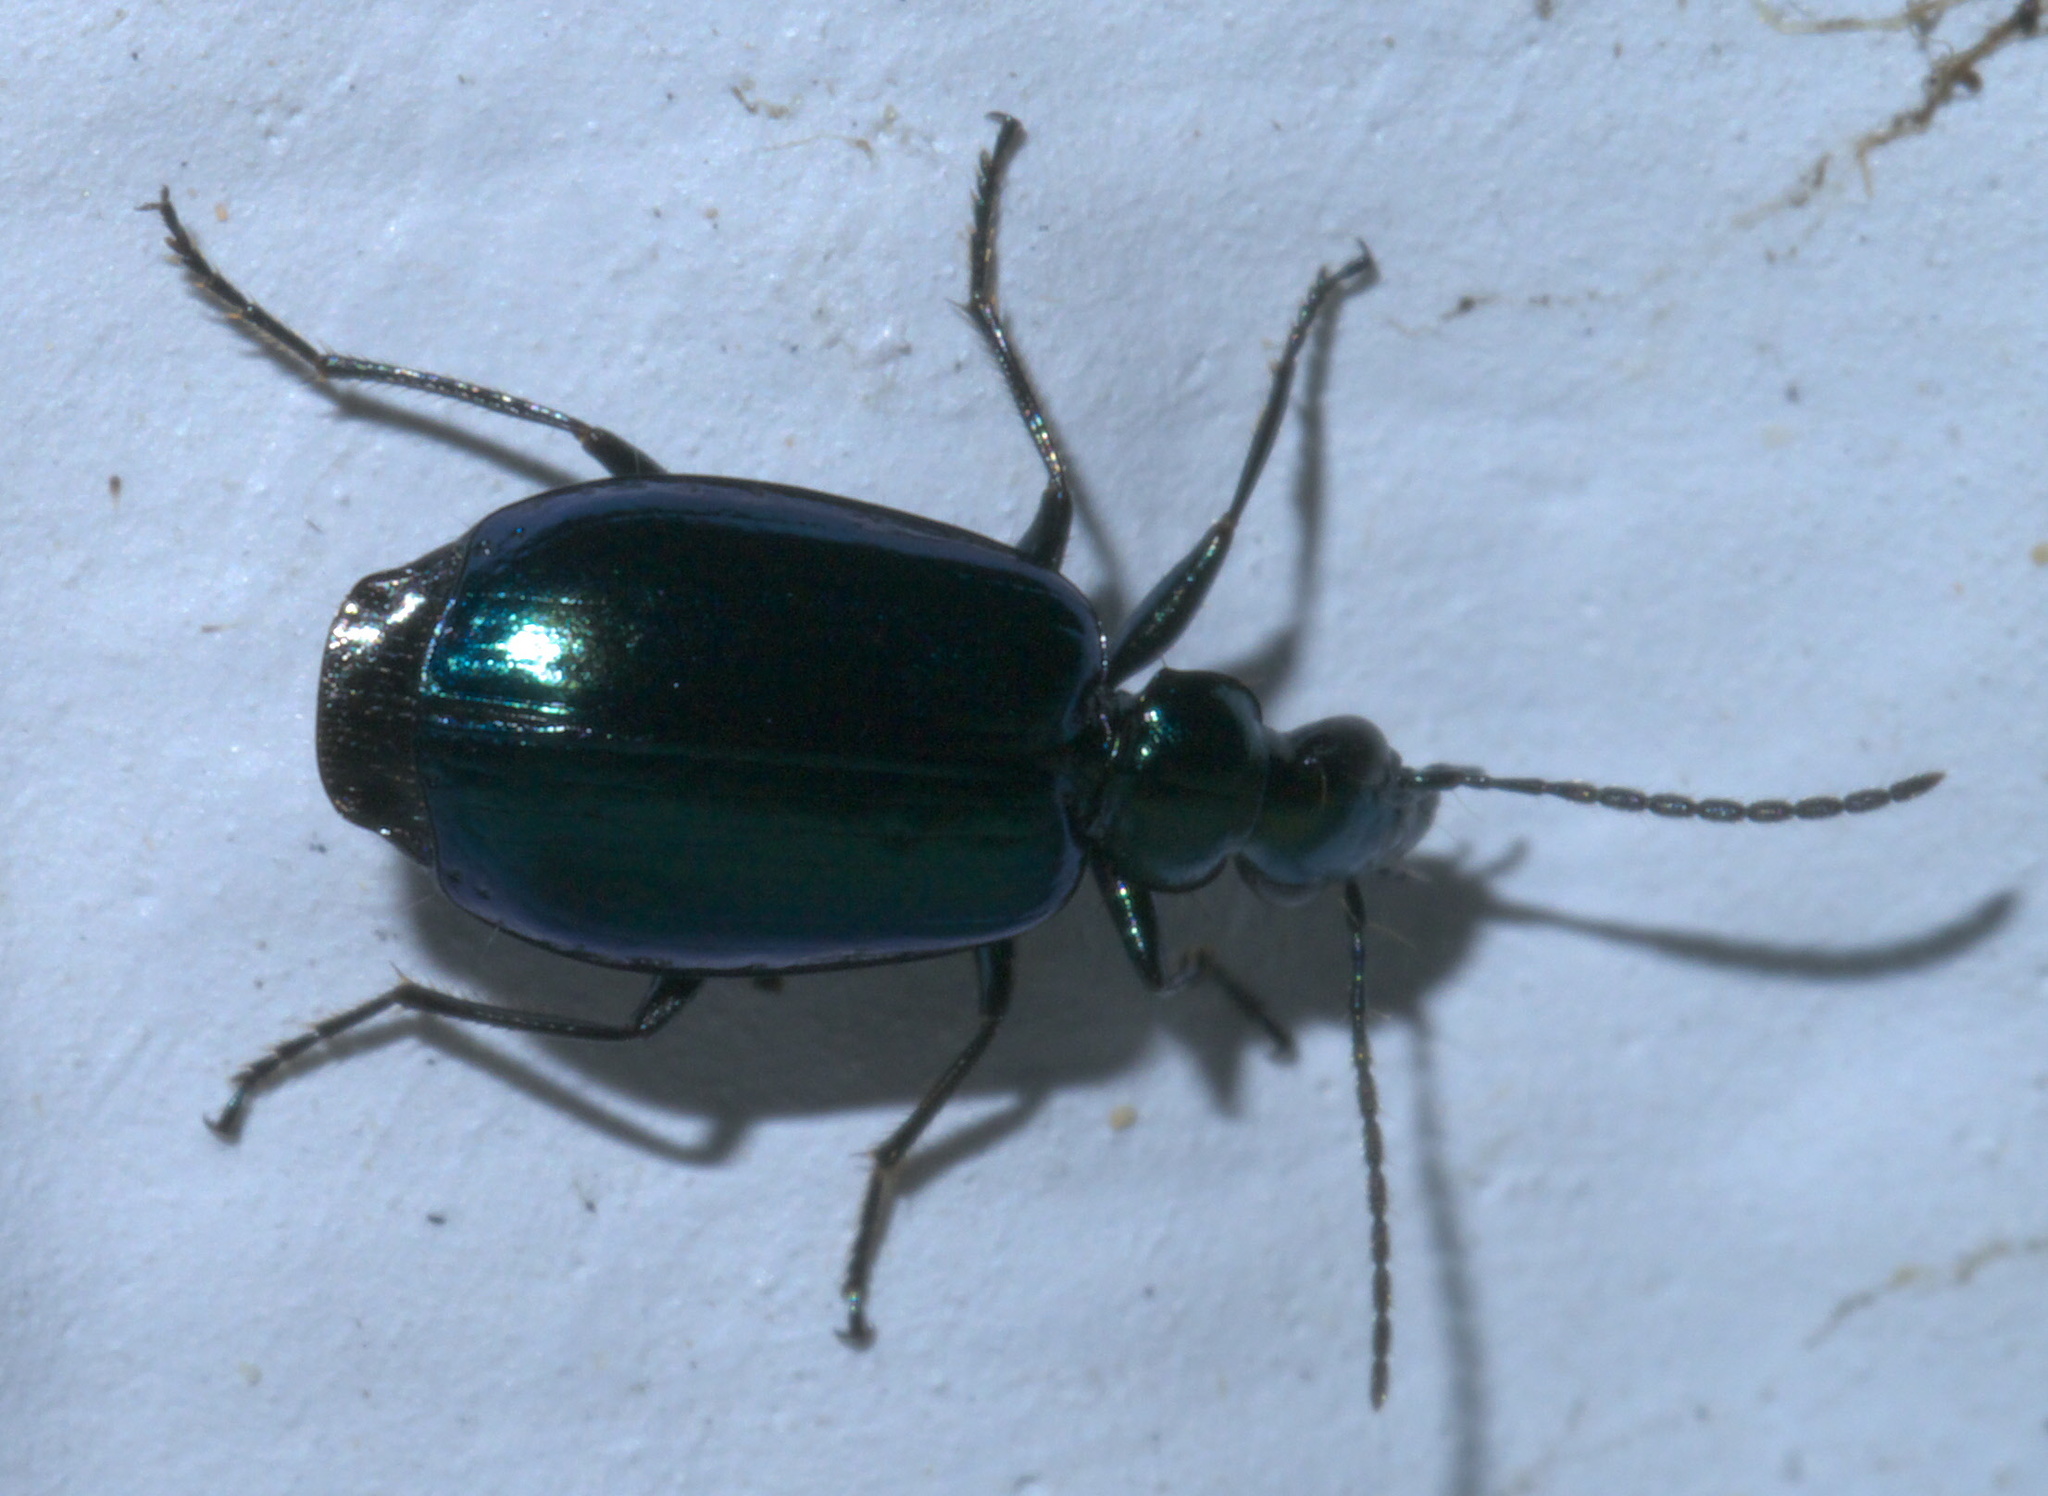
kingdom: Animalia
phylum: Arthropoda
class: Insecta
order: Coleoptera
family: Carabidae
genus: Lebia
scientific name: Lebia viridis
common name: Flower lebia beetle
